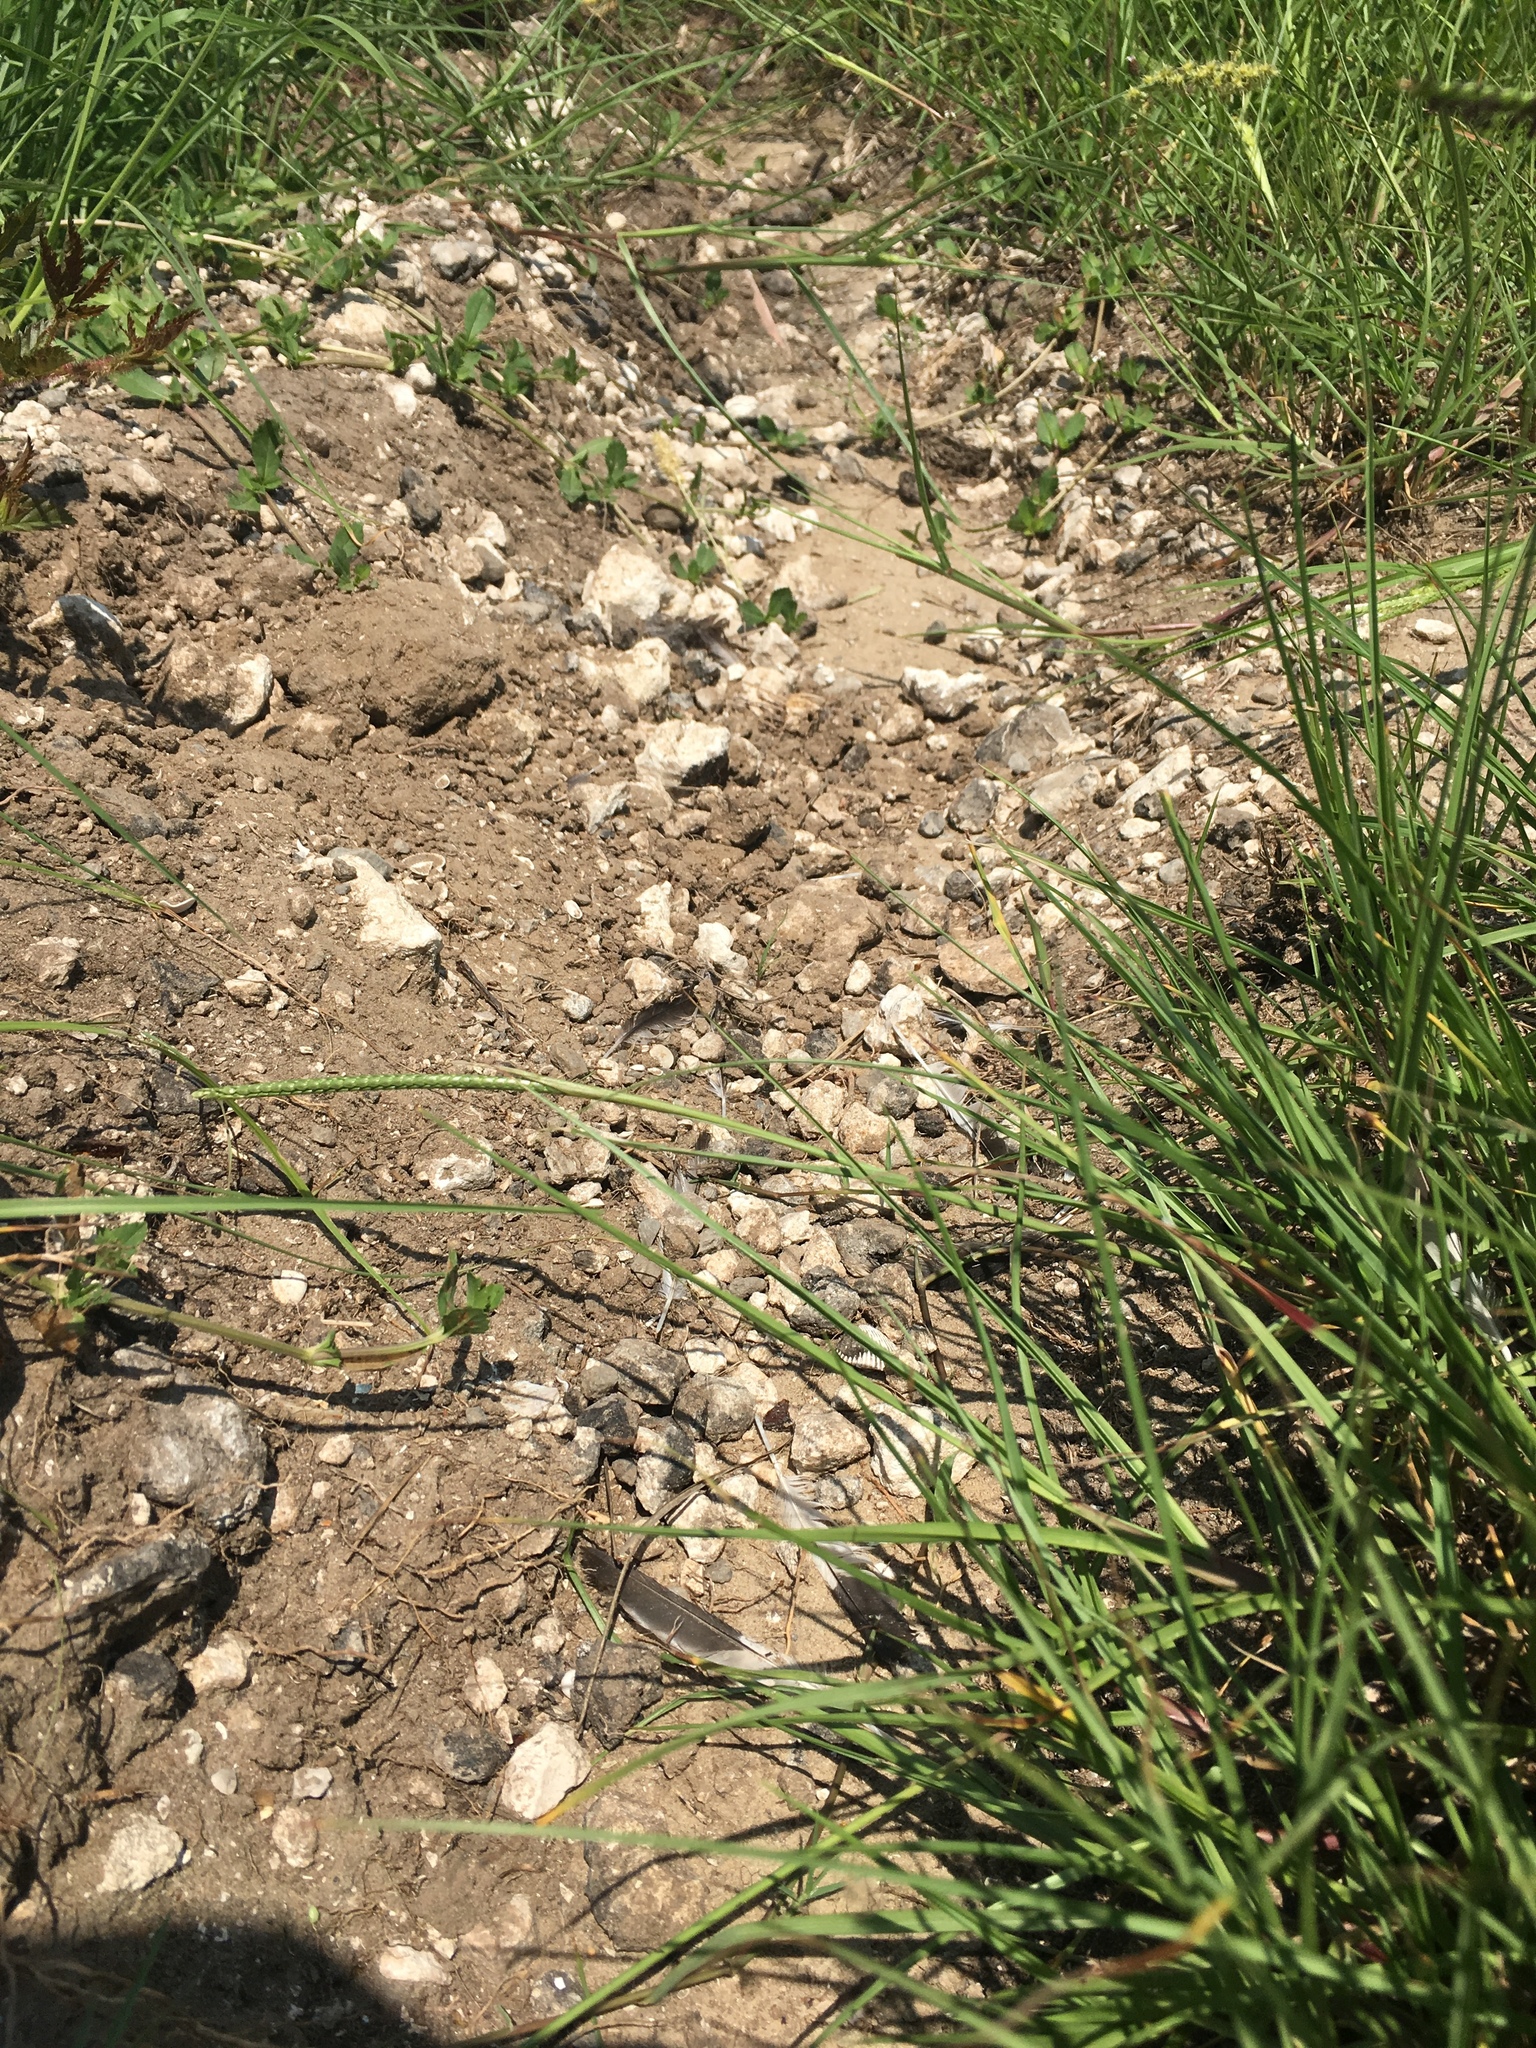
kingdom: Animalia
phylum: Chordata
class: Aves
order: Passeriformes
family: Laniidae
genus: Lanius
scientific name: Lanius ludovicianus
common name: Loggerhead shrike
